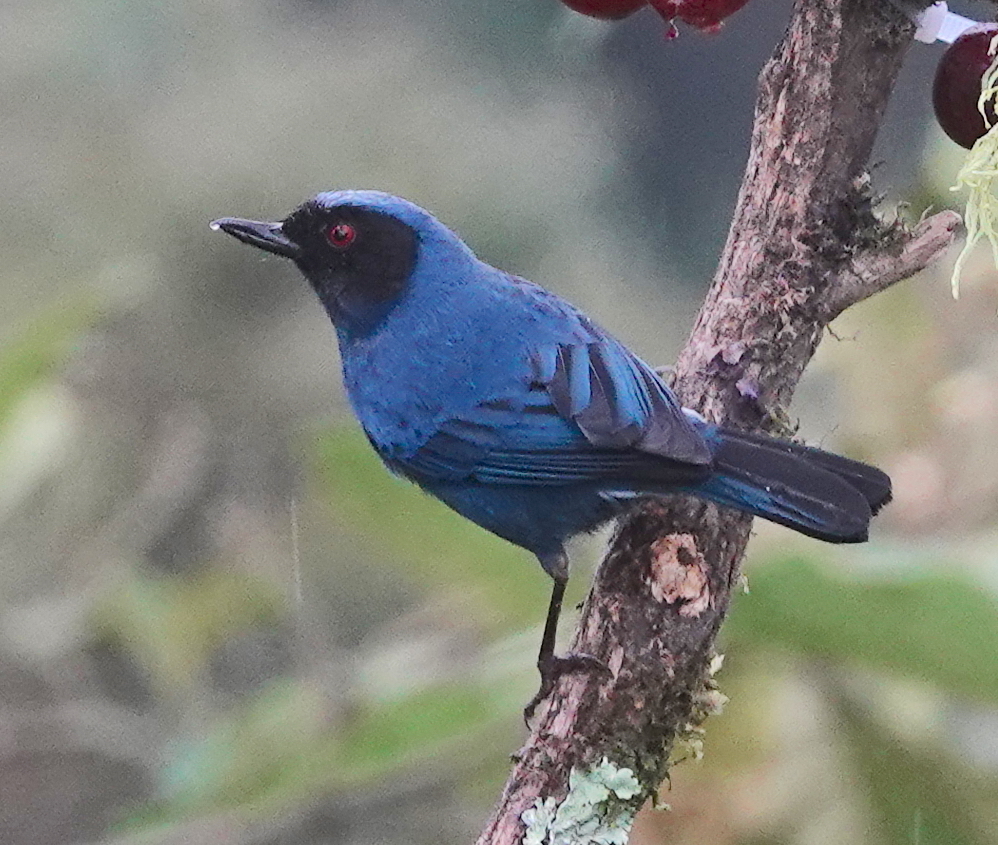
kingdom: Animalia
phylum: Chordata
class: Aves
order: Passeriformes
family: Thraupidae
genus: Diglossa
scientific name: Diglossa cyanea
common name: Masked flowerpiercer
